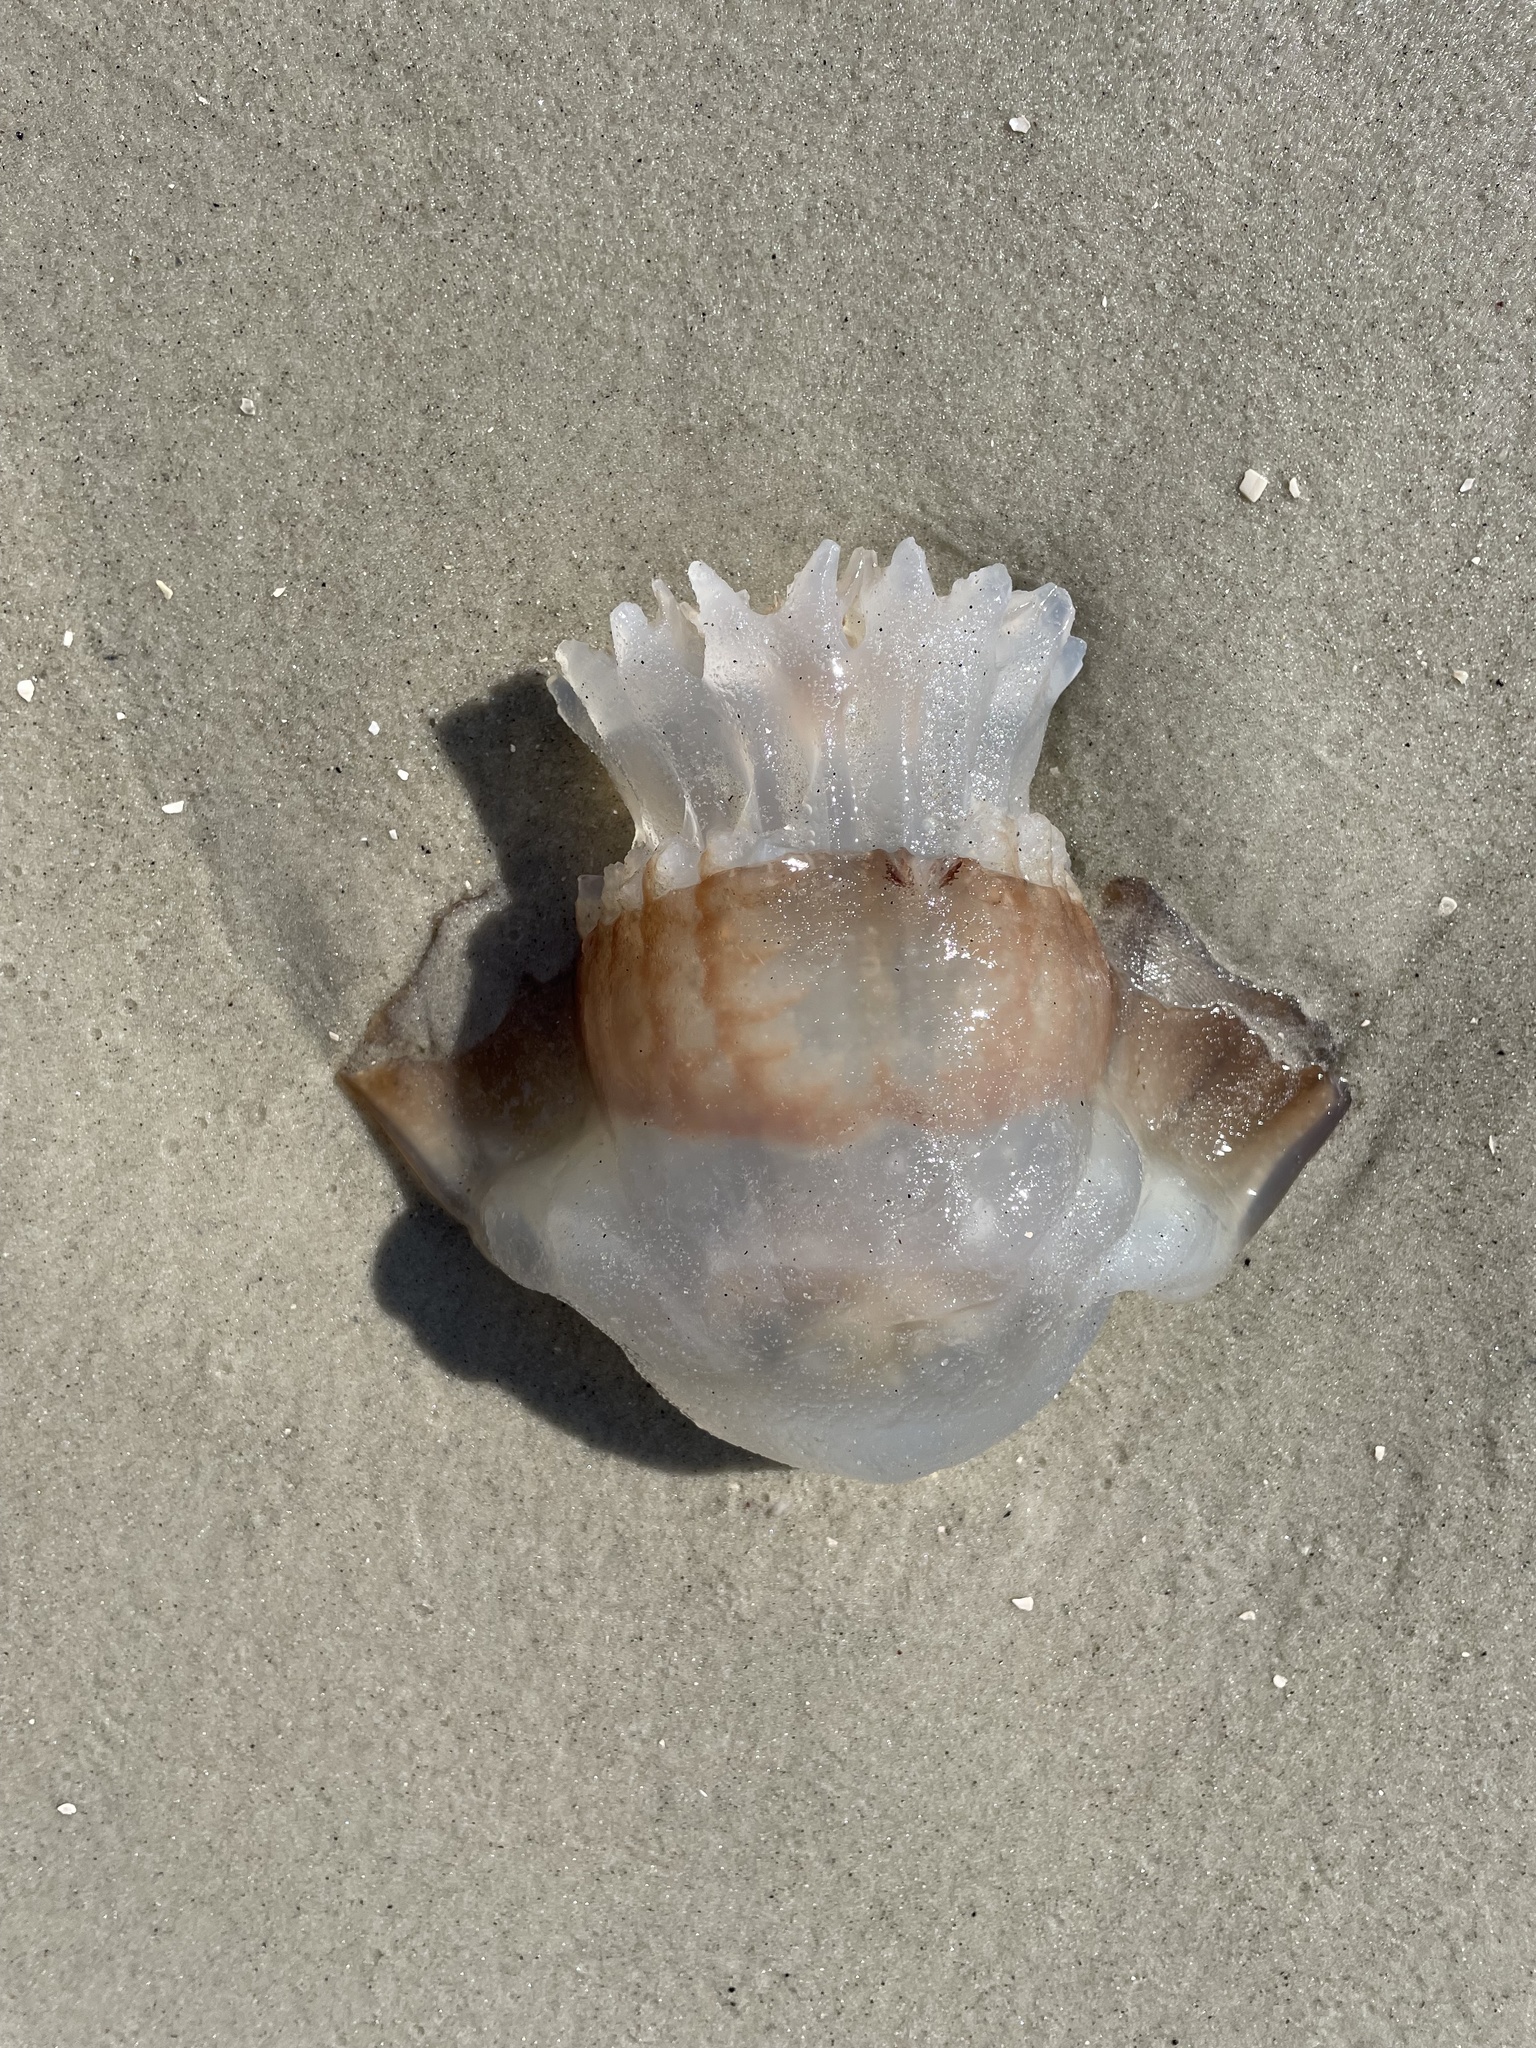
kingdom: Animalia
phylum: Cnidaria
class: Scyphozoa
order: Rhizostomeae
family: Stomolophidae
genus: Stomolophus
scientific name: Stomolophus meleagris
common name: Cabbagehead
